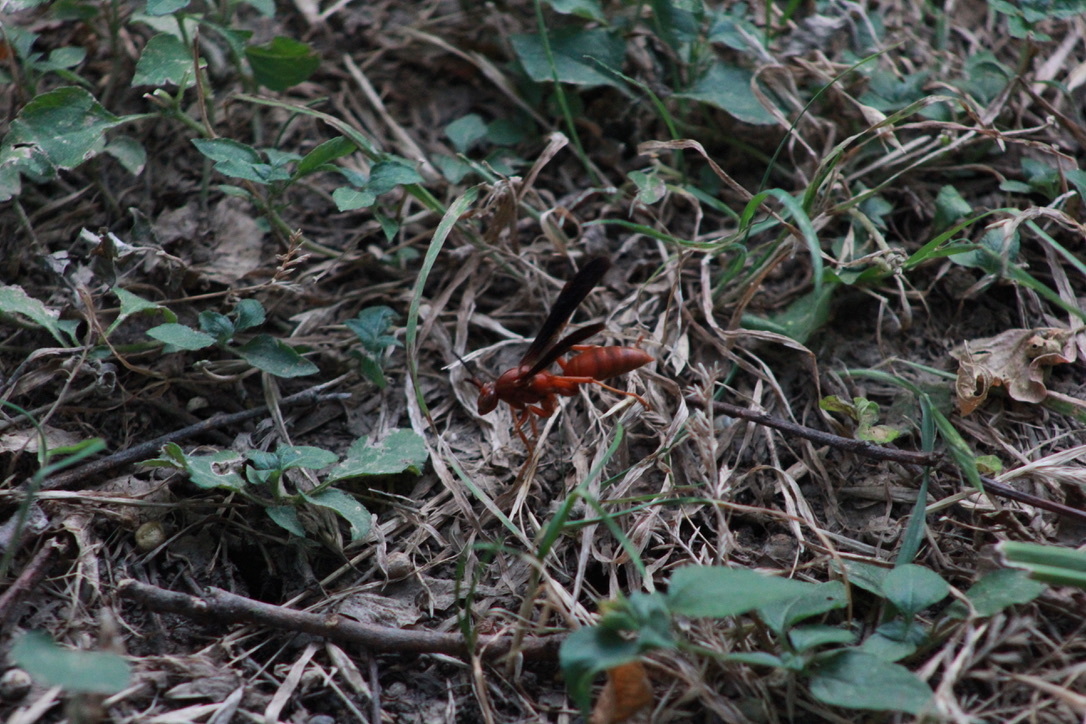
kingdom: Animalia
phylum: Arthropoda
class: Insecta
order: Hymenoptera
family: Vespidae
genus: Fuscopolistes
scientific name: Fuscopolistes
